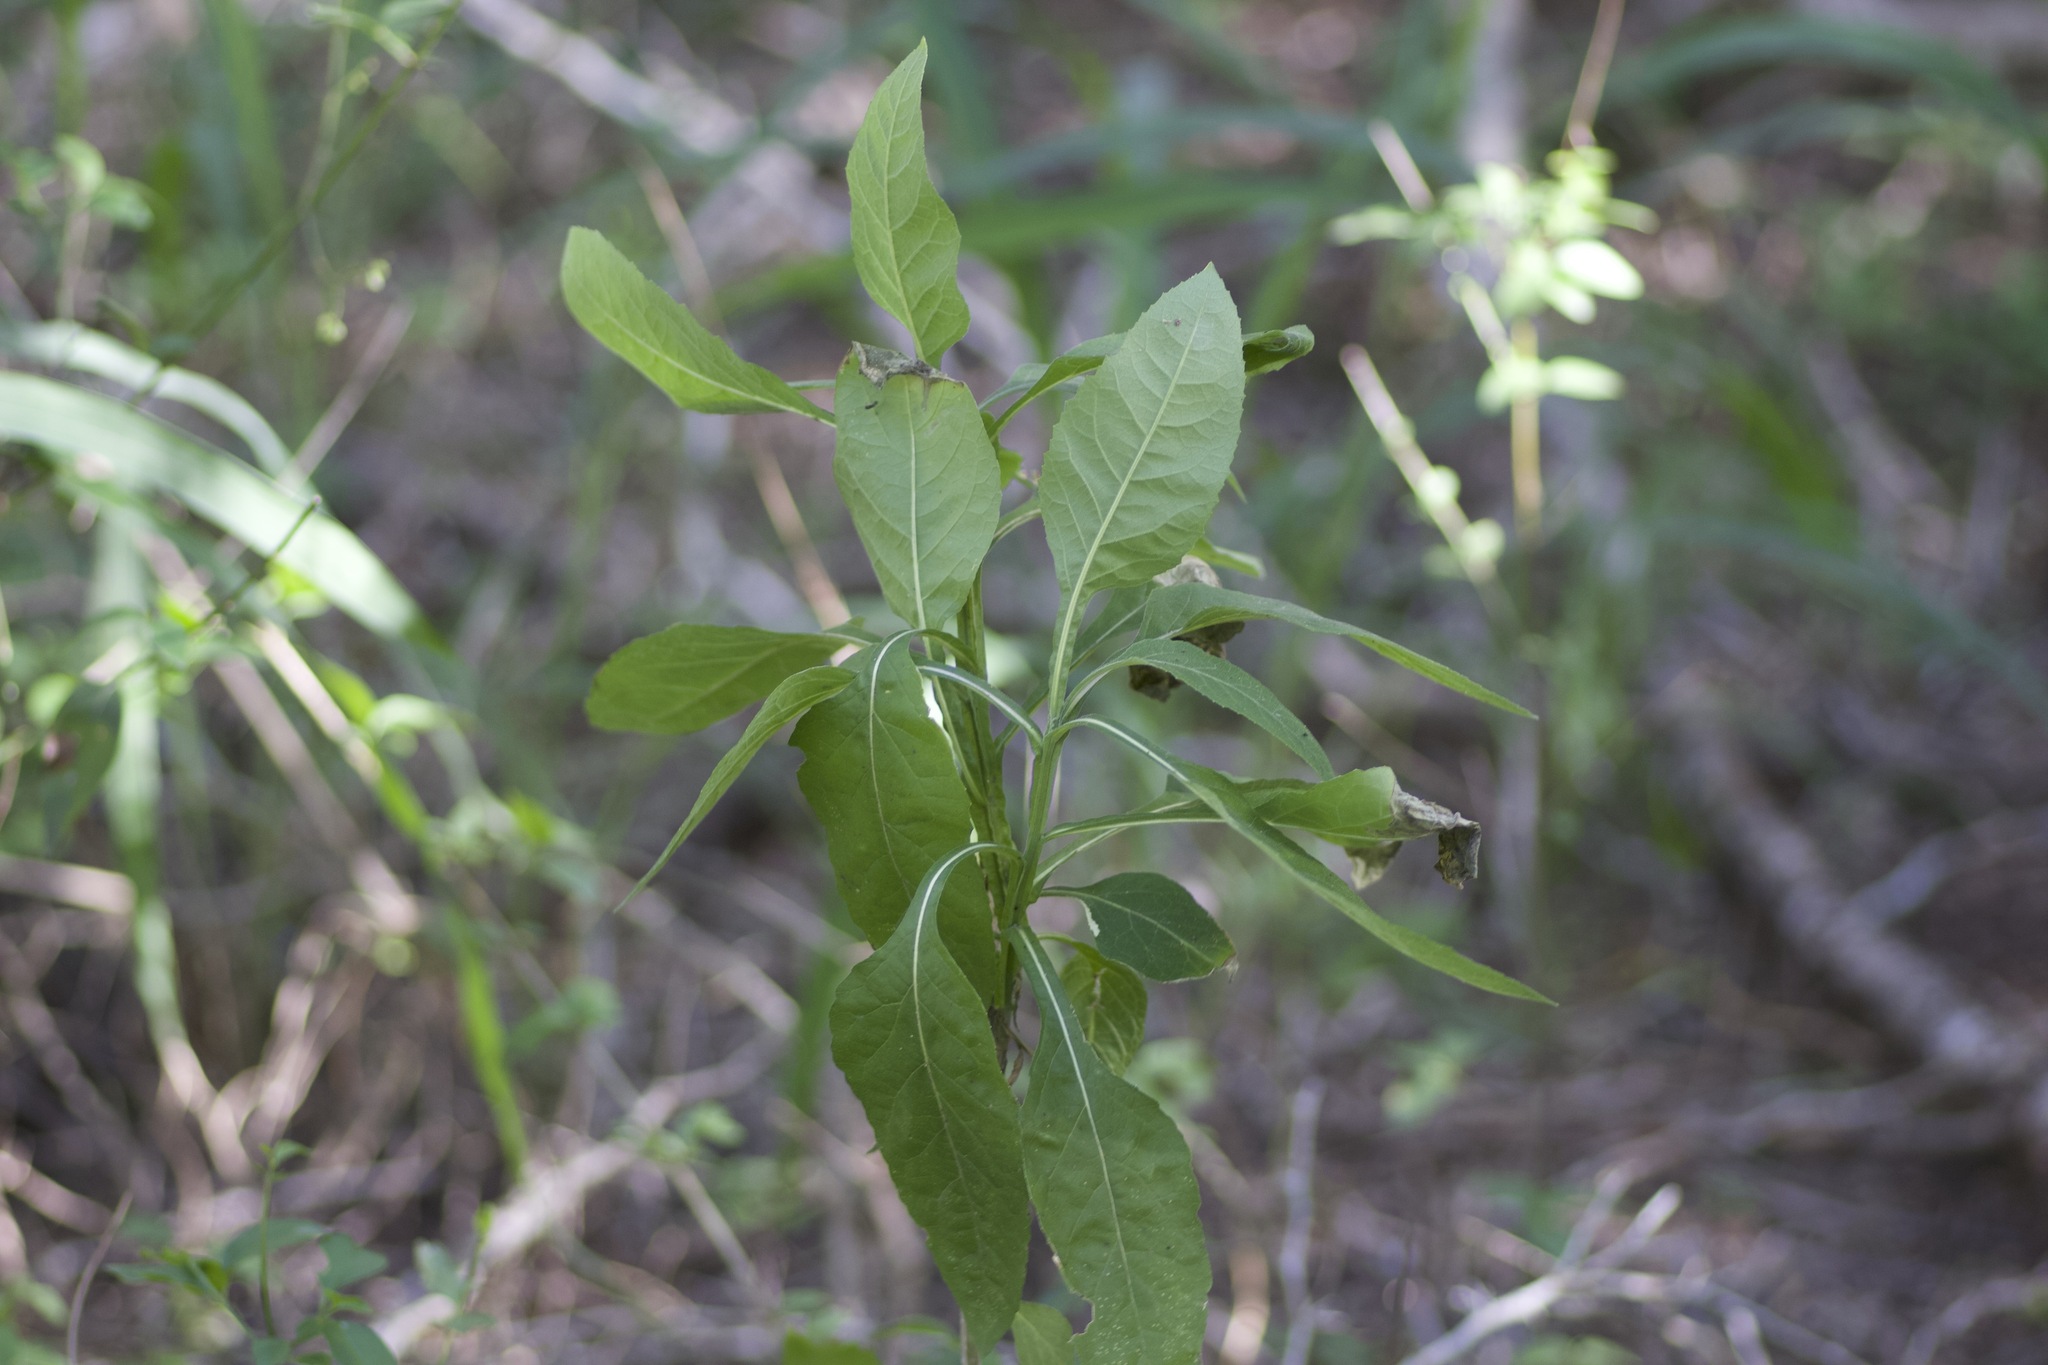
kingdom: Plantae
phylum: Tracheophyta
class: Magnoliopsida
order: Asterales
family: Asteraceae
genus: Verbesina
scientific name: Verbesina microptera
